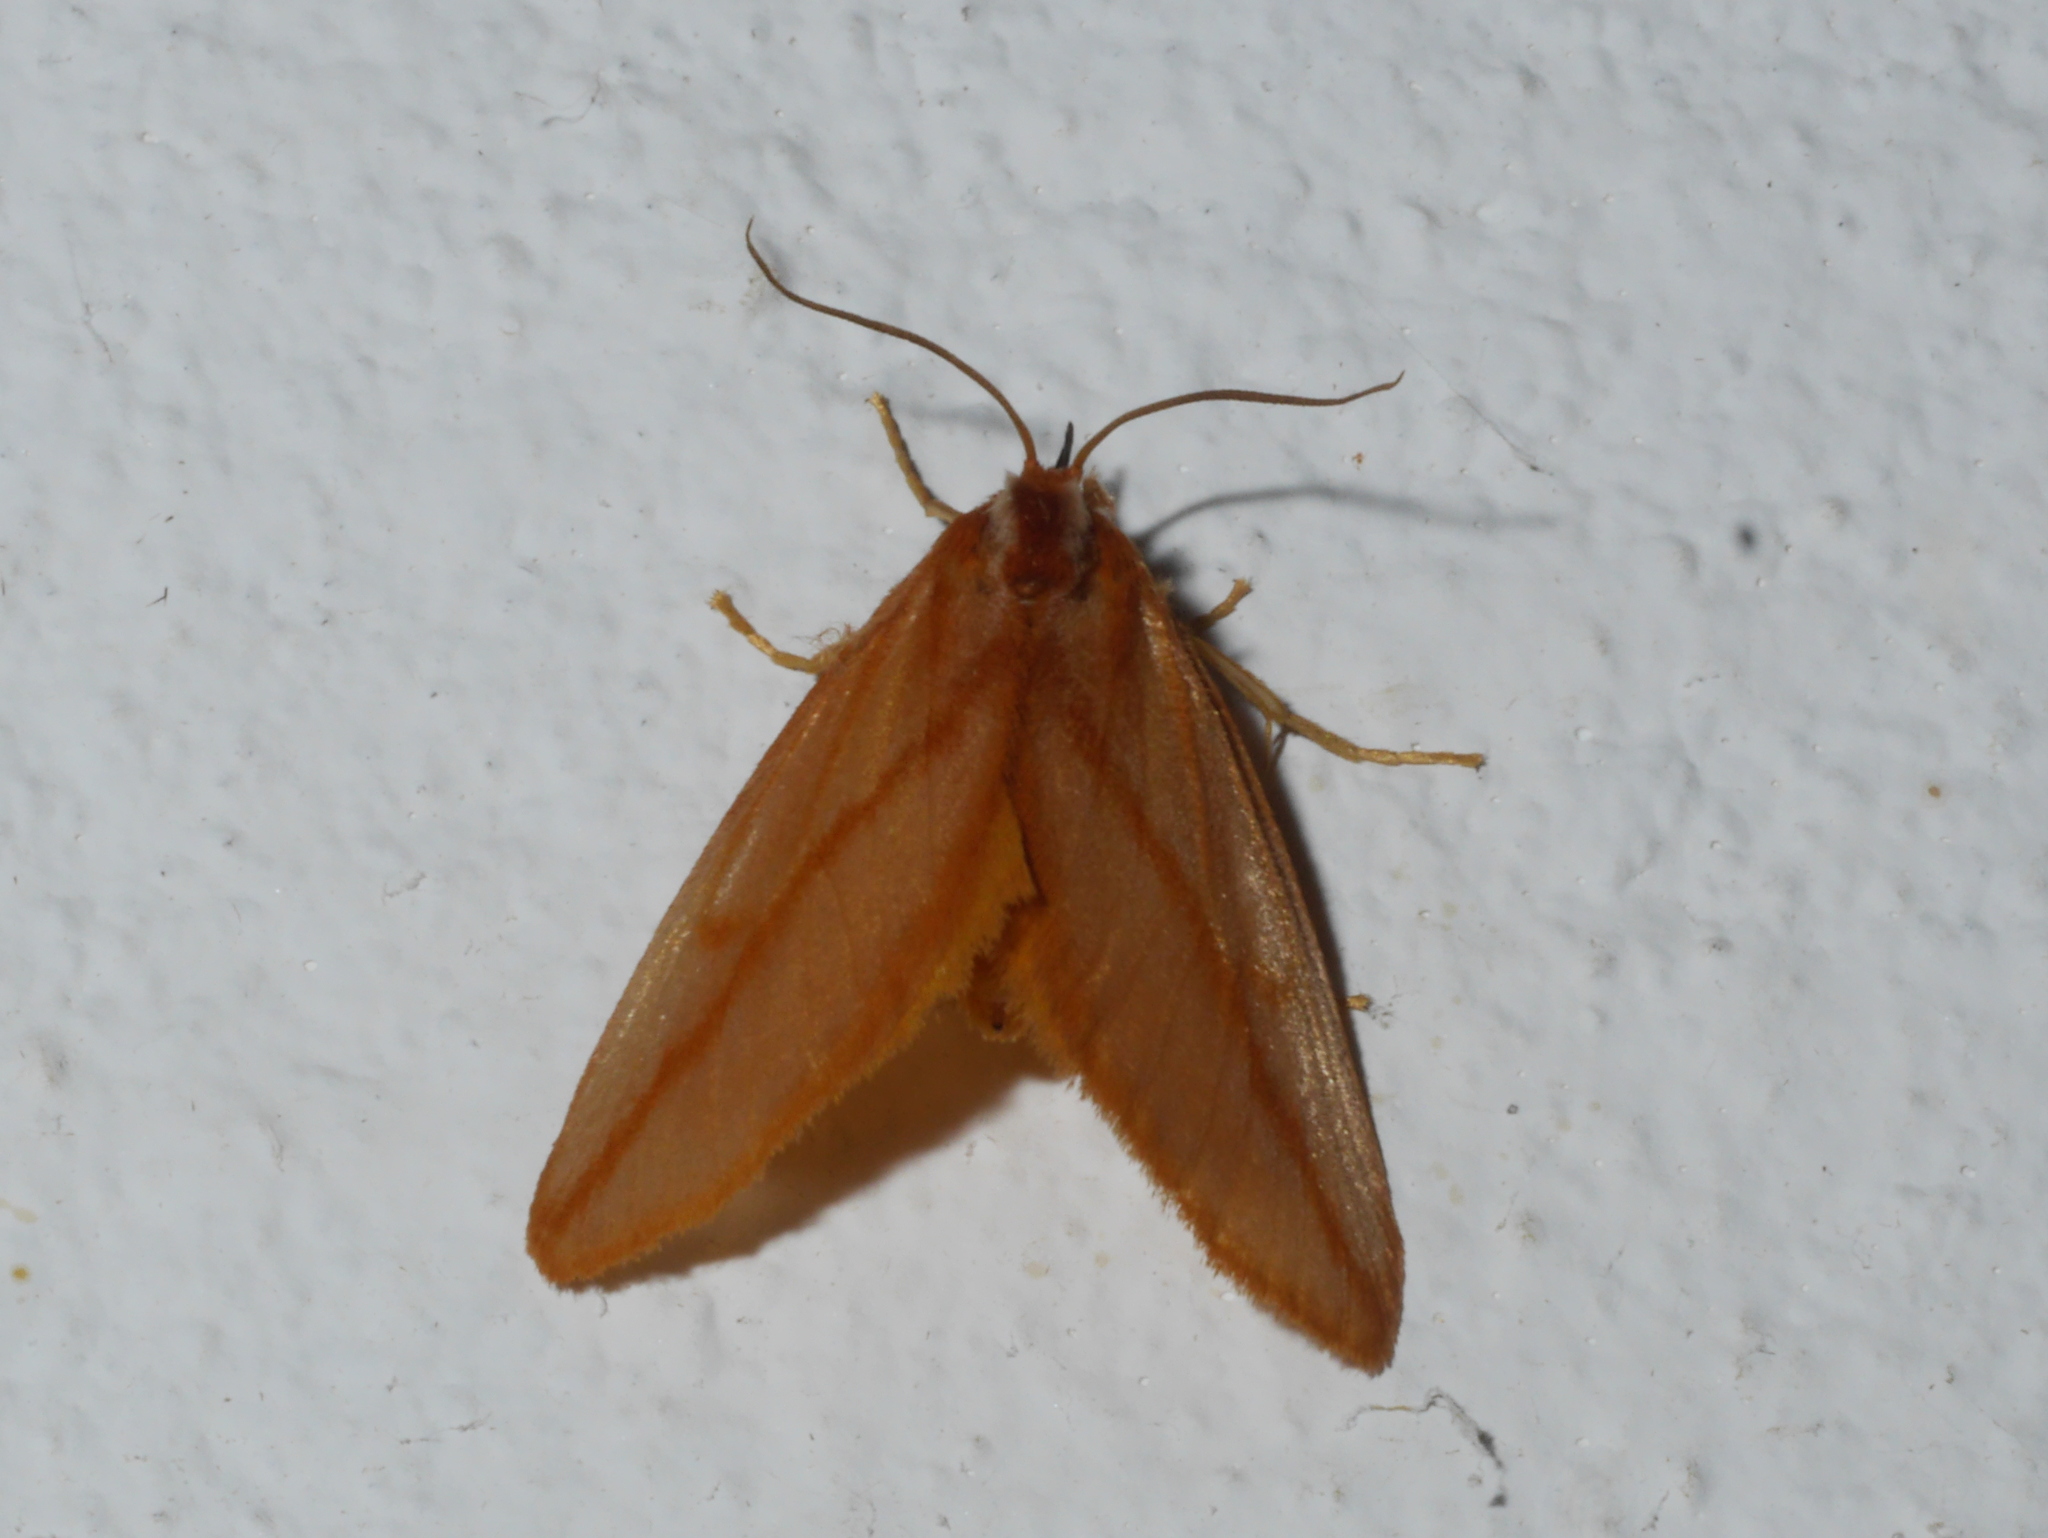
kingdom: Animalia
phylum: Arthropoda
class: Insecta
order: Lepidoptera
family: Limacodidae
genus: Hadraphe
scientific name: Hadraphe aprica
